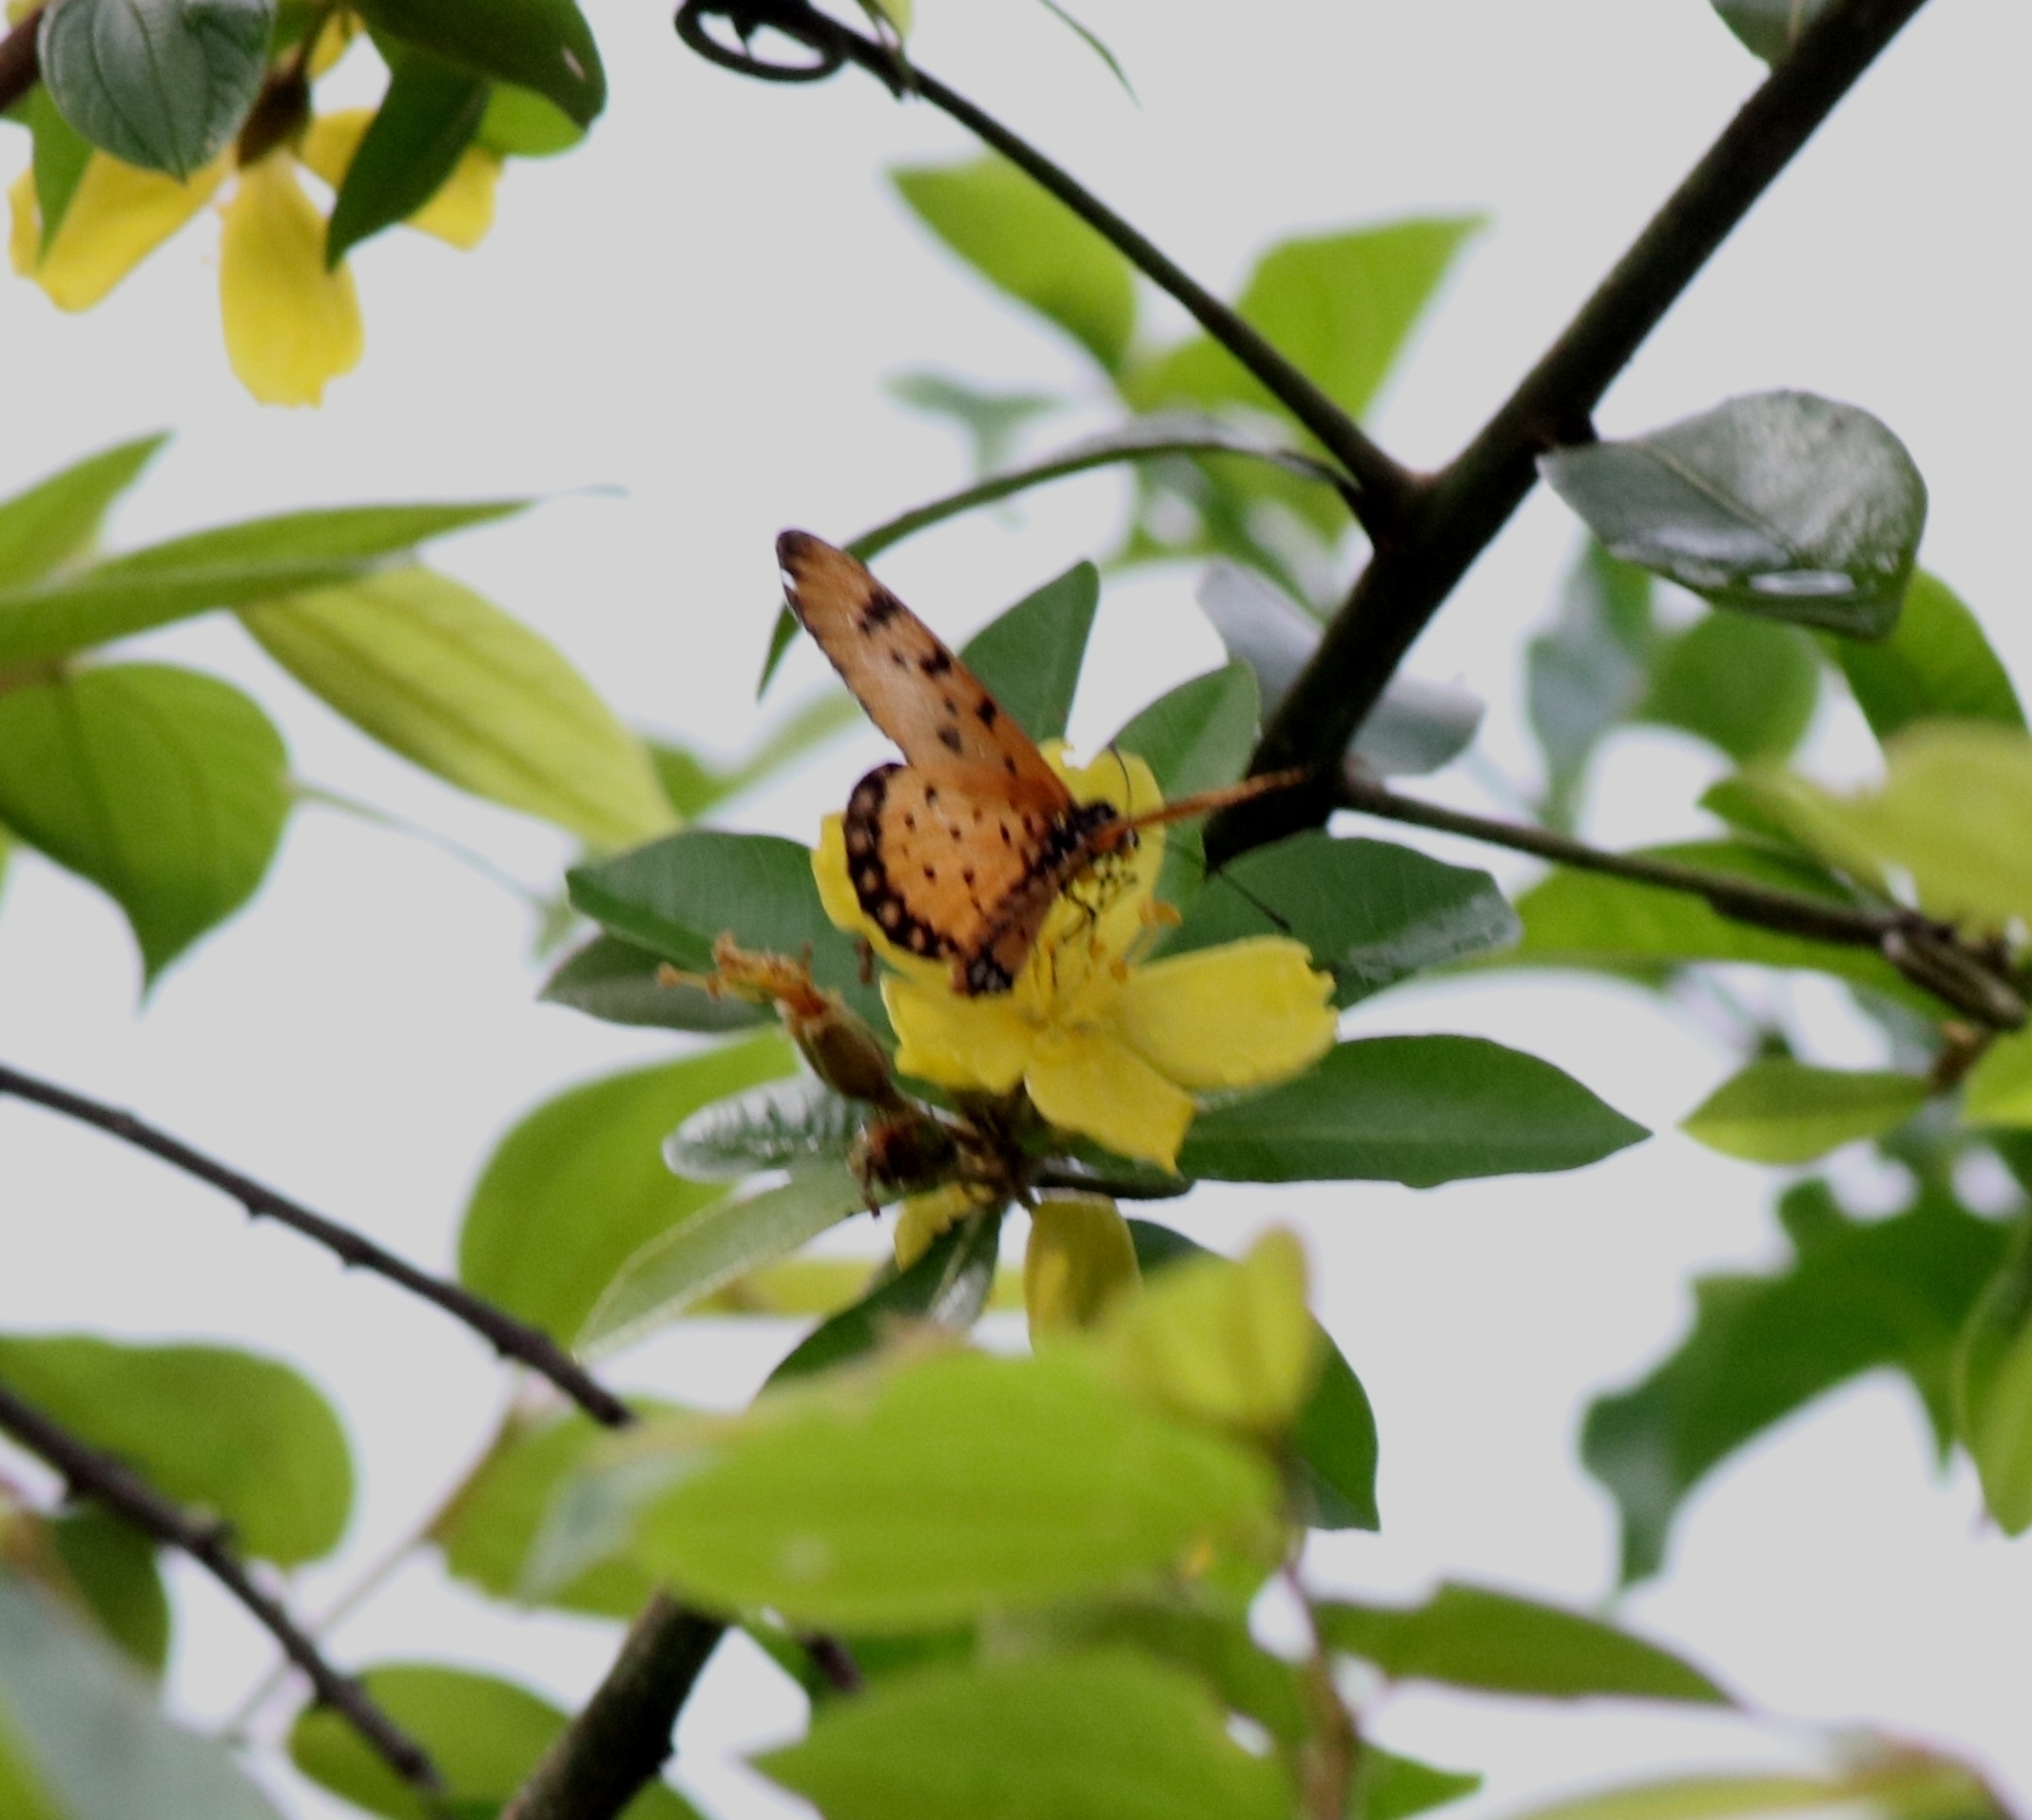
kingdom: Animalia
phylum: Arthropoda
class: Insecta
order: Lepidoptera
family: Nymphalidae
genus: Acraea
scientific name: Acraea terpsicore
